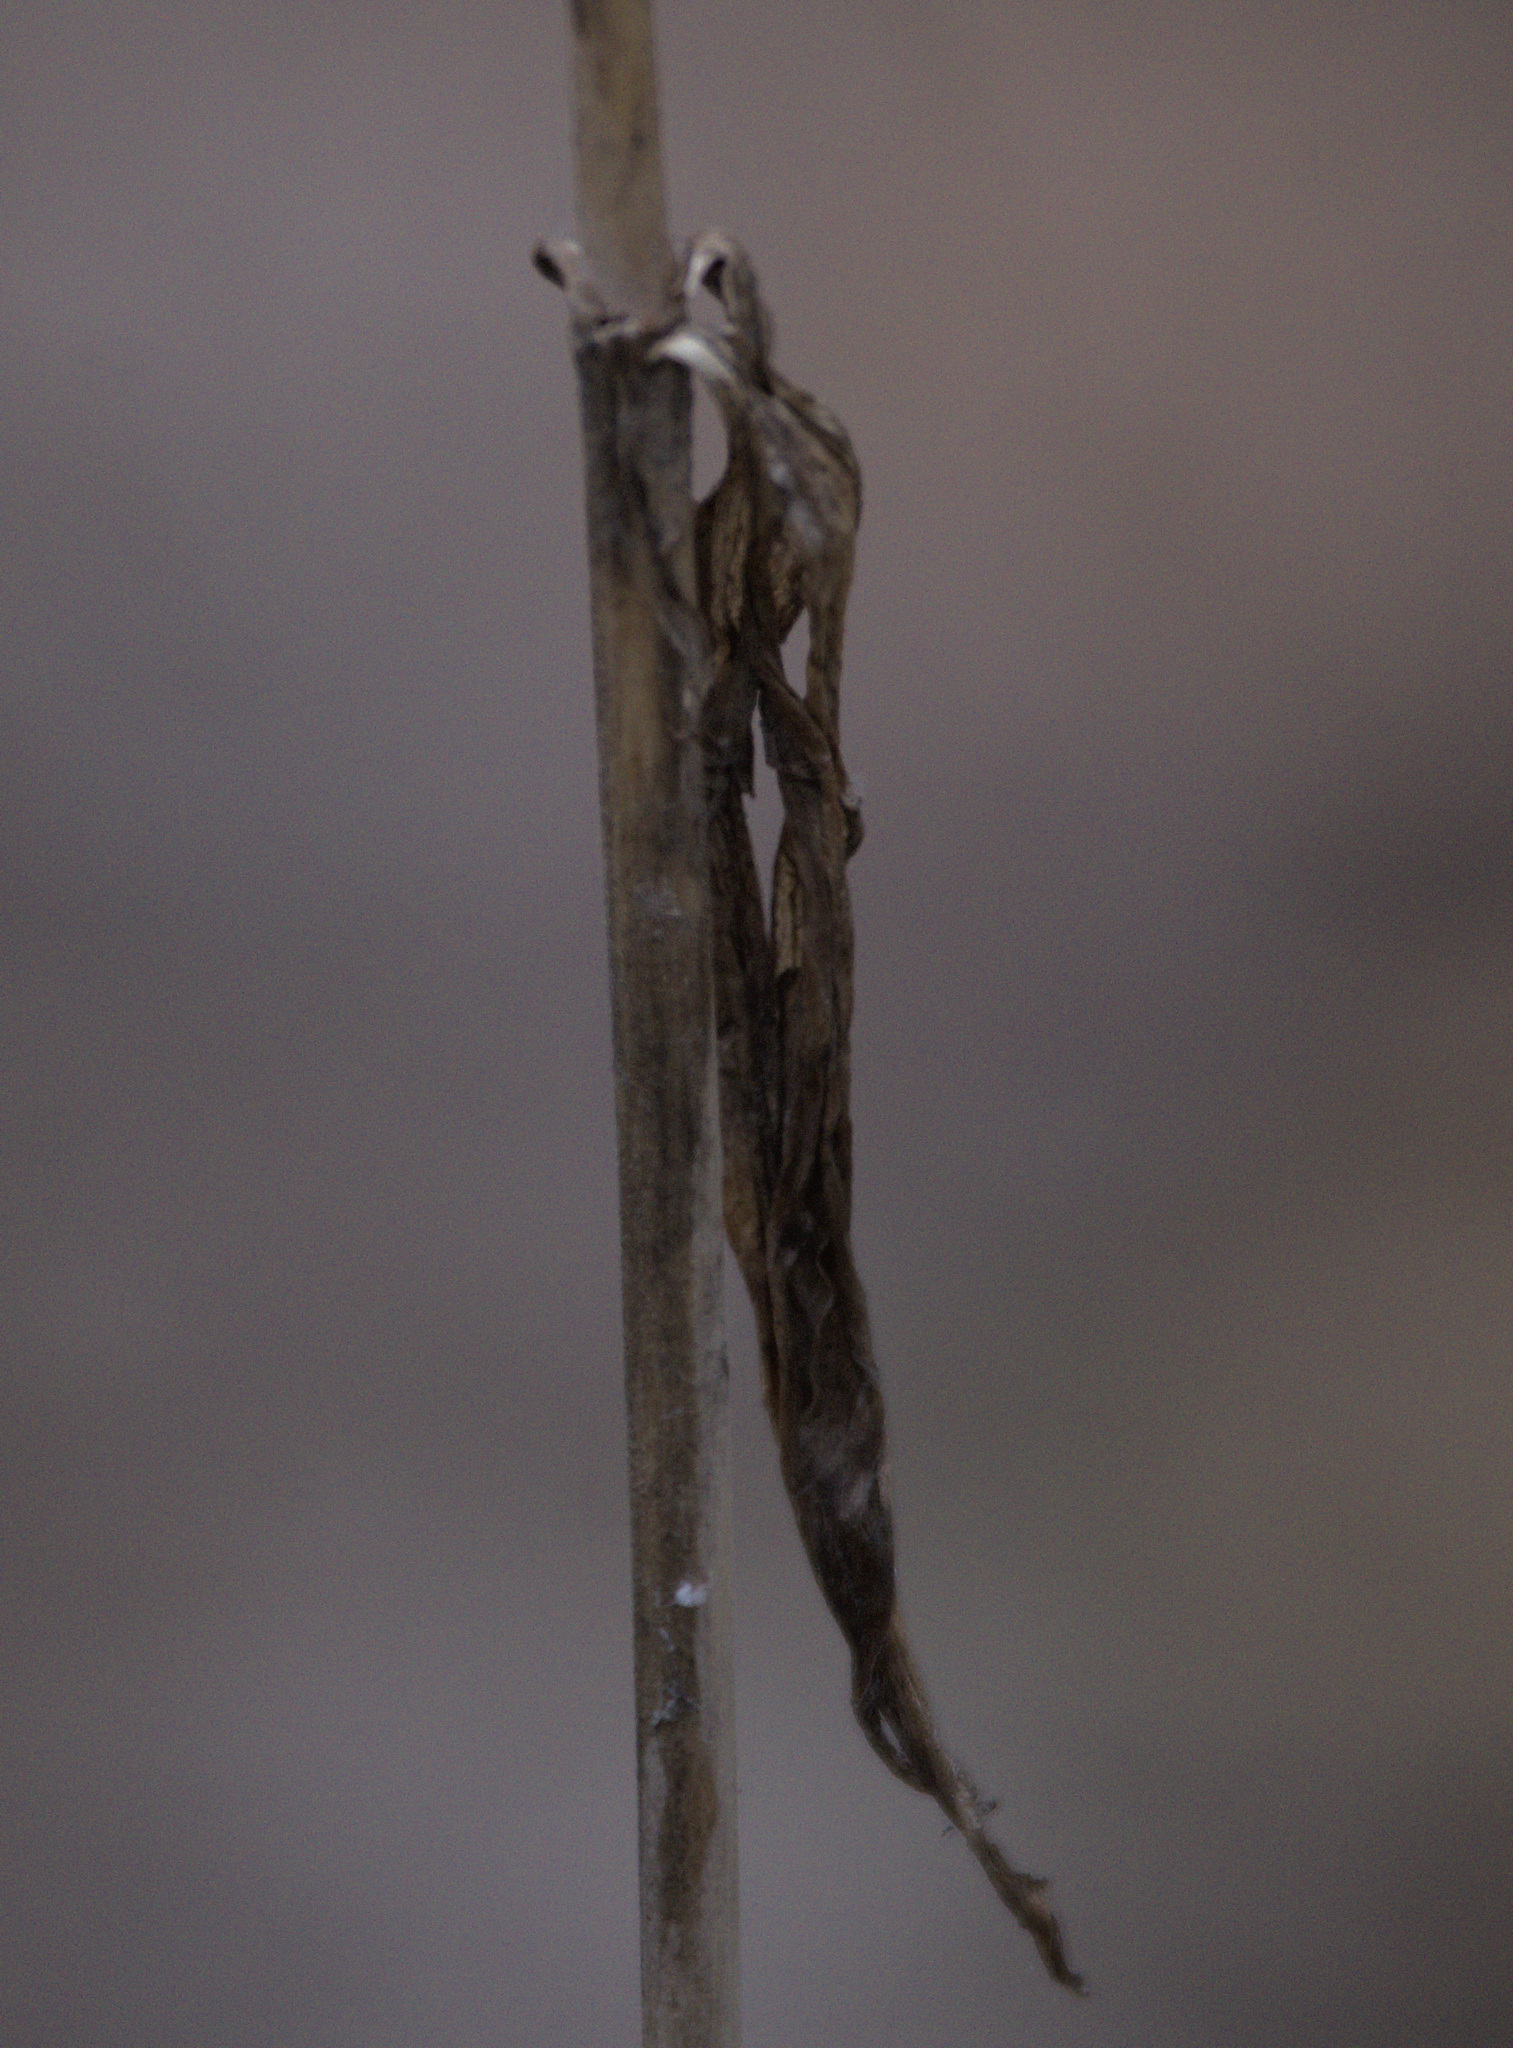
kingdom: Plantae
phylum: Tracheophyta
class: Liliopsida
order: Liliales
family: Liliaceae
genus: Lilium
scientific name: Lilium martagon
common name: Martagon lily
